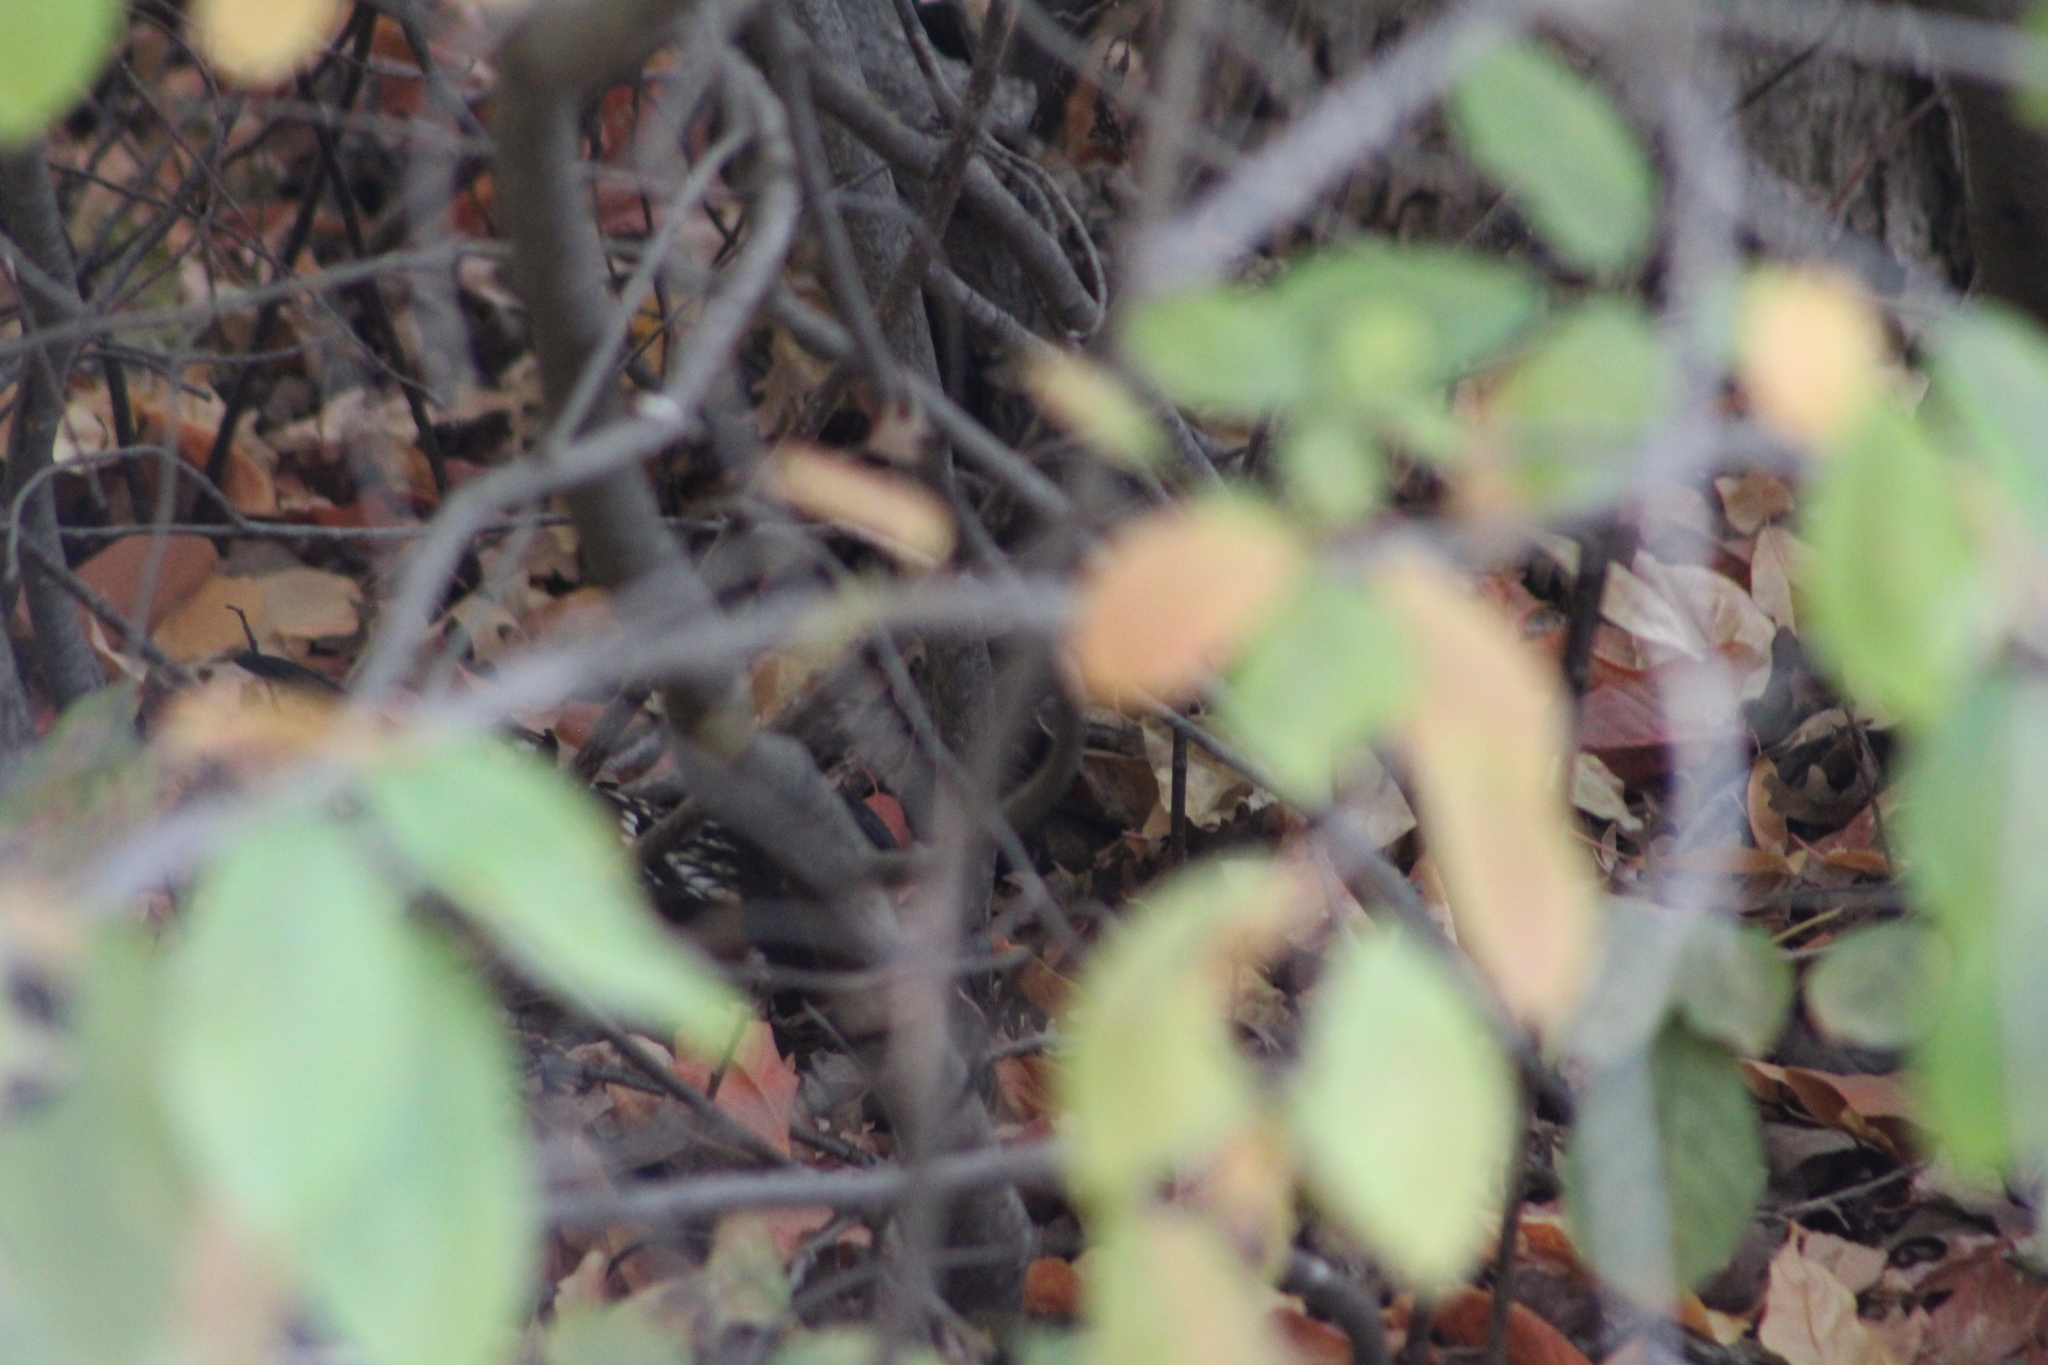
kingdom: Animalia
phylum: Chordata
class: Aves
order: Passeriformes
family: Passerellidae
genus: Pipilo
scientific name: Pipilo maculatus
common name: Spotted towhee
